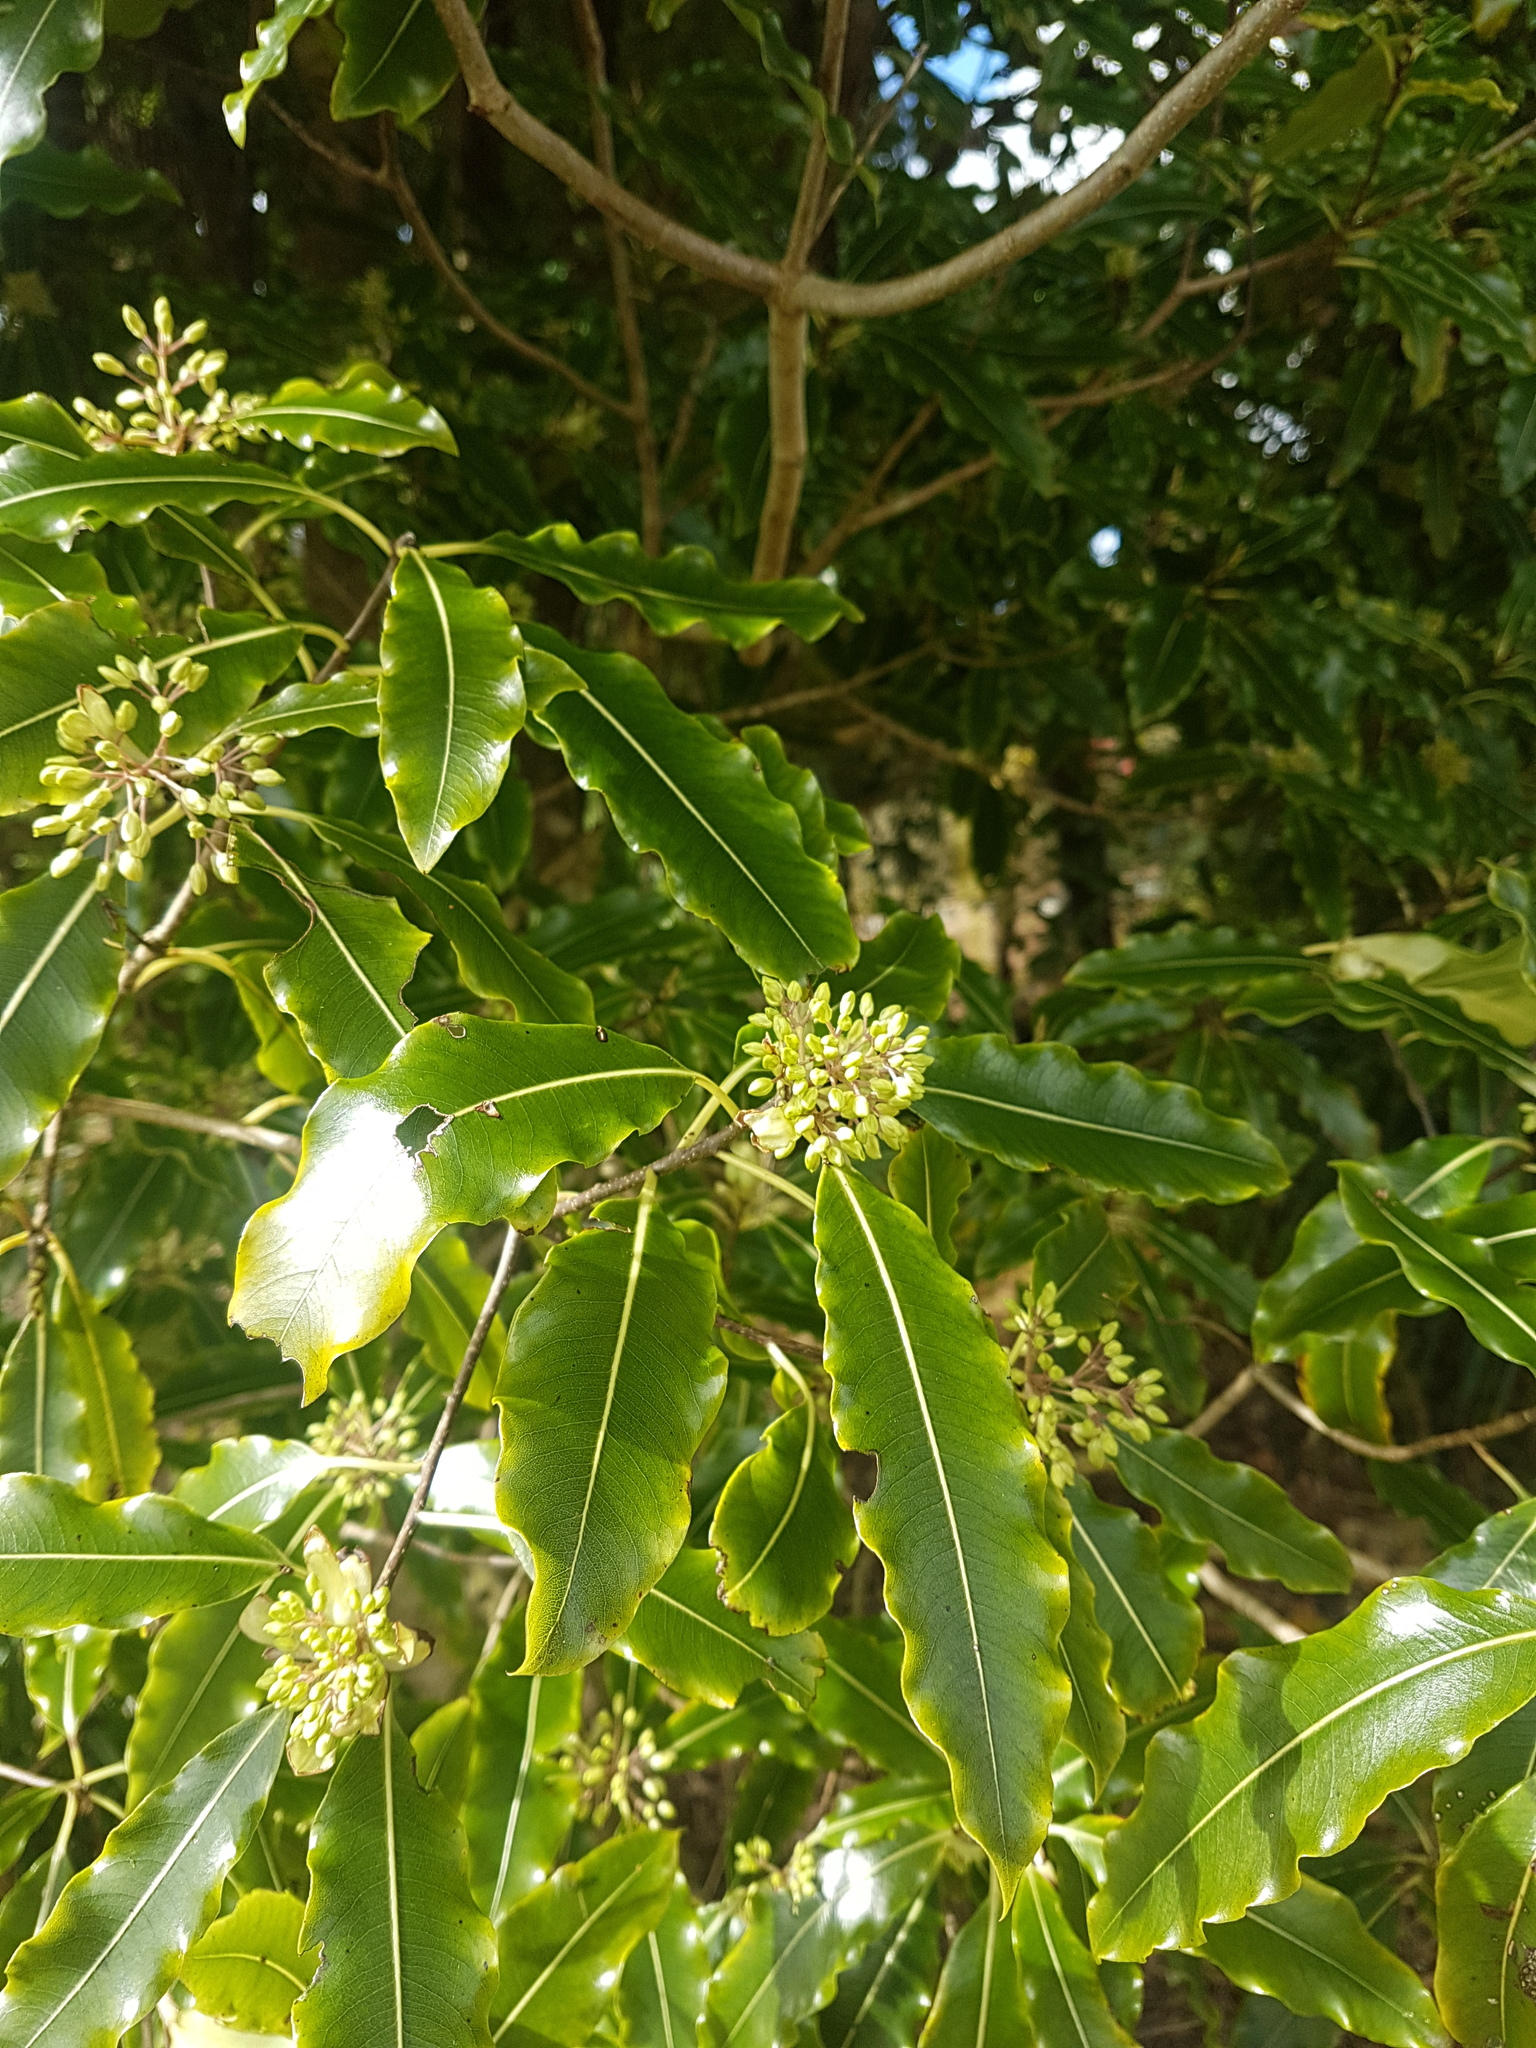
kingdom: Plantae
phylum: Tracheophyta
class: Magnoliopsida
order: Apiales
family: Pittosporaceae
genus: Pittosporum
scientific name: Pittosporum eugenioides
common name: Lemonwood
